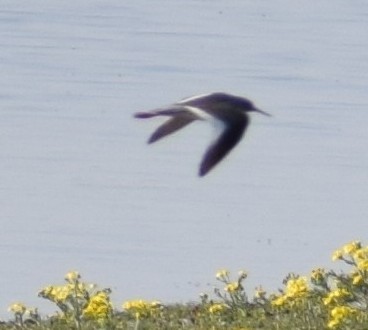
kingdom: Animalia
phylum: Chordata
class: Aves
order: Charadriiformes
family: Scolopacidae
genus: Tringa
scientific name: Tringa totanus
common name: Common redshank
